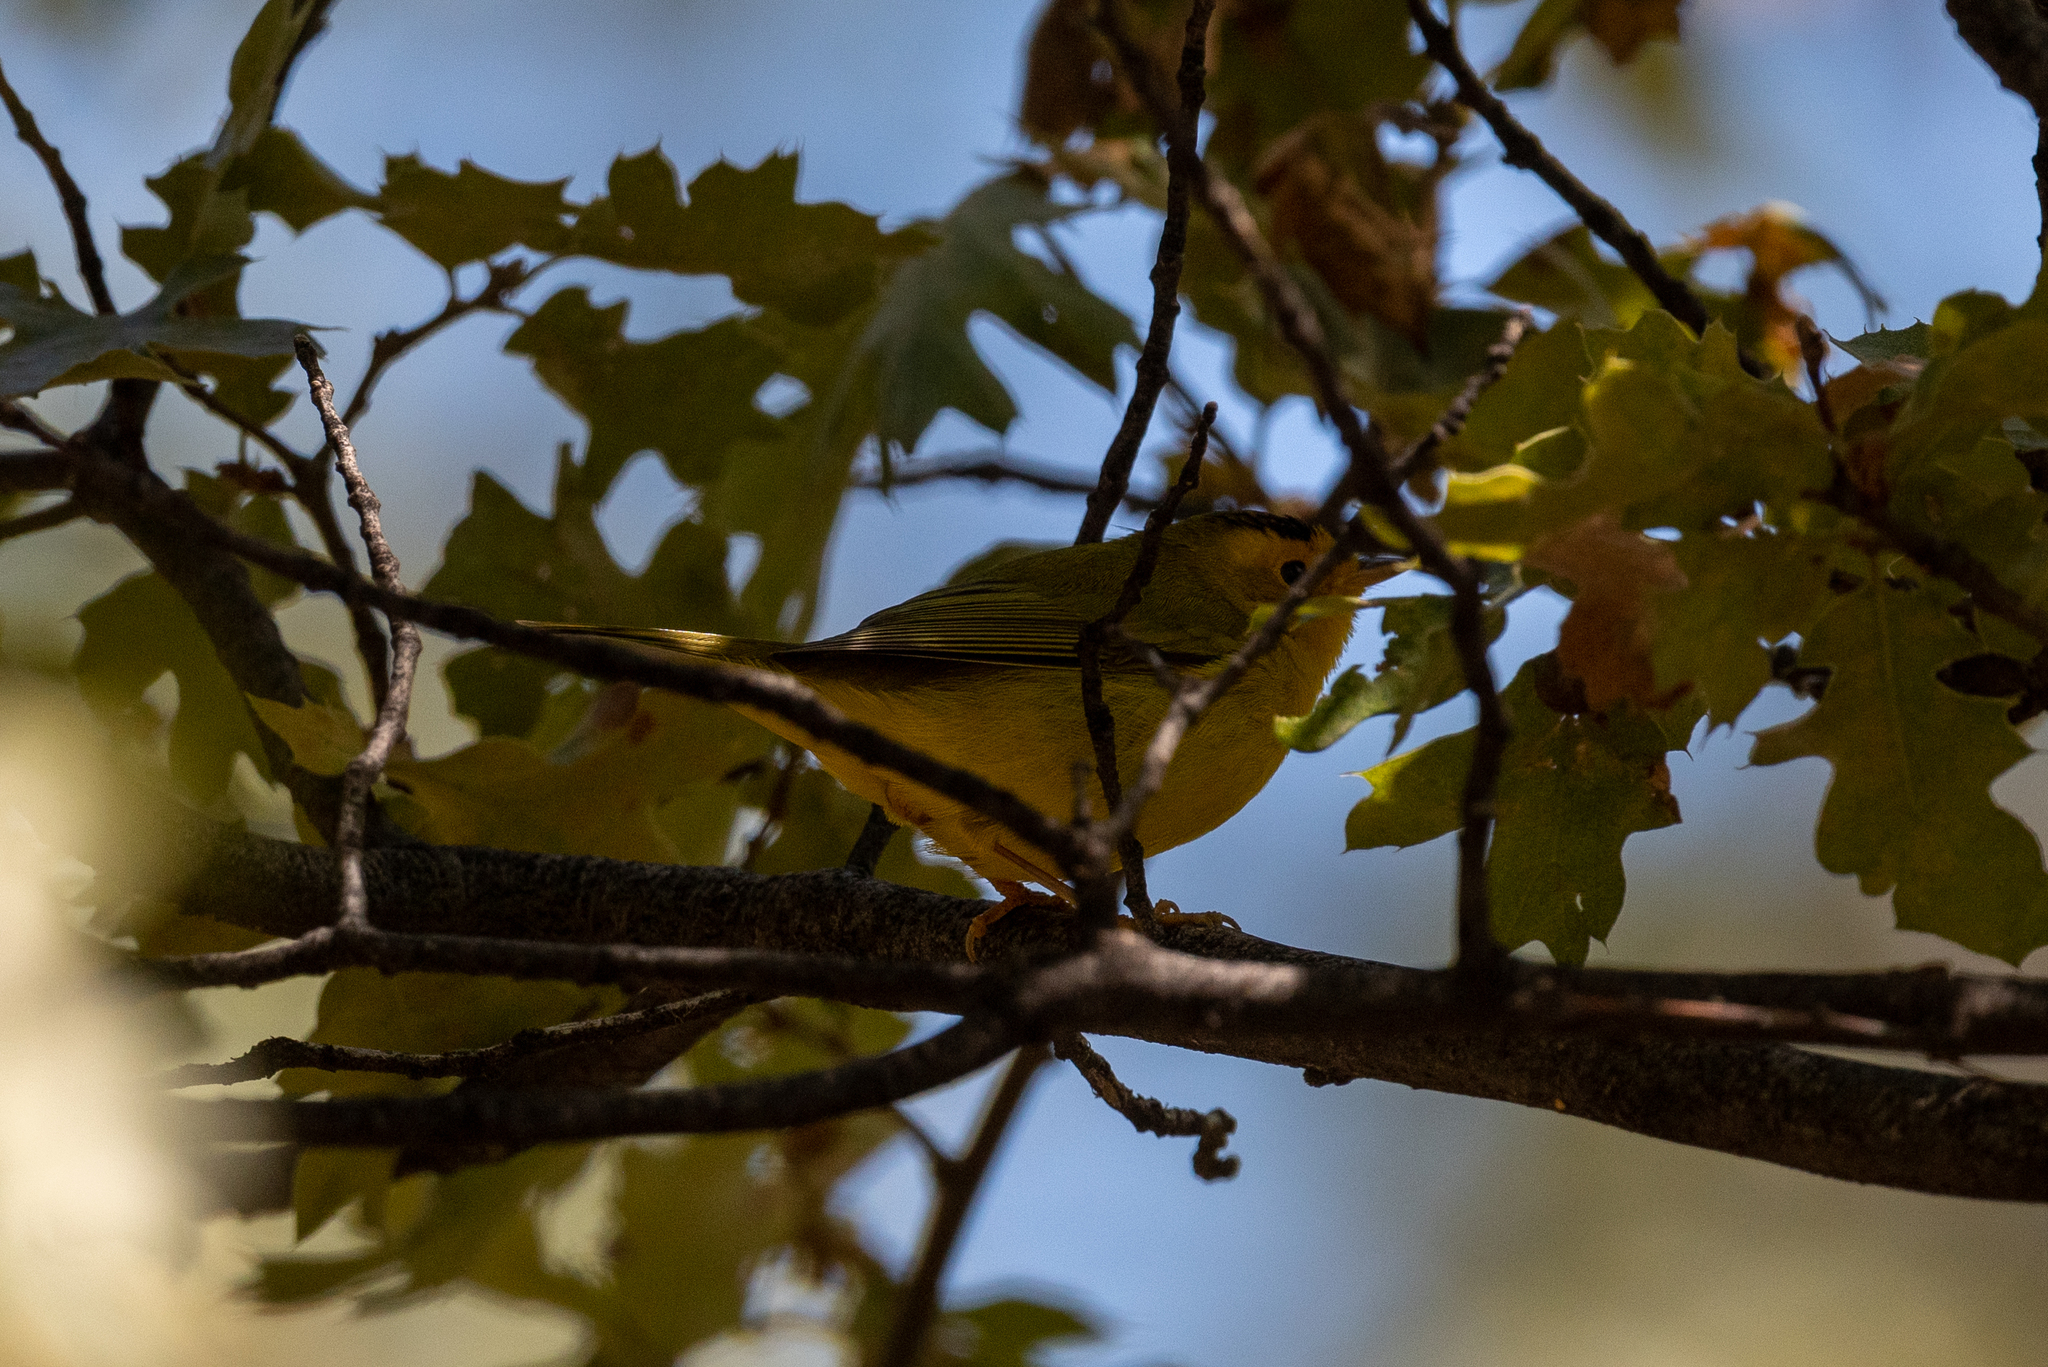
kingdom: Animalia
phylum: Chordata
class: Aves
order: Passeriformes
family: Parulidae
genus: Cardellina
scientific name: Cardellina pusilla
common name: Wilson's warbler
